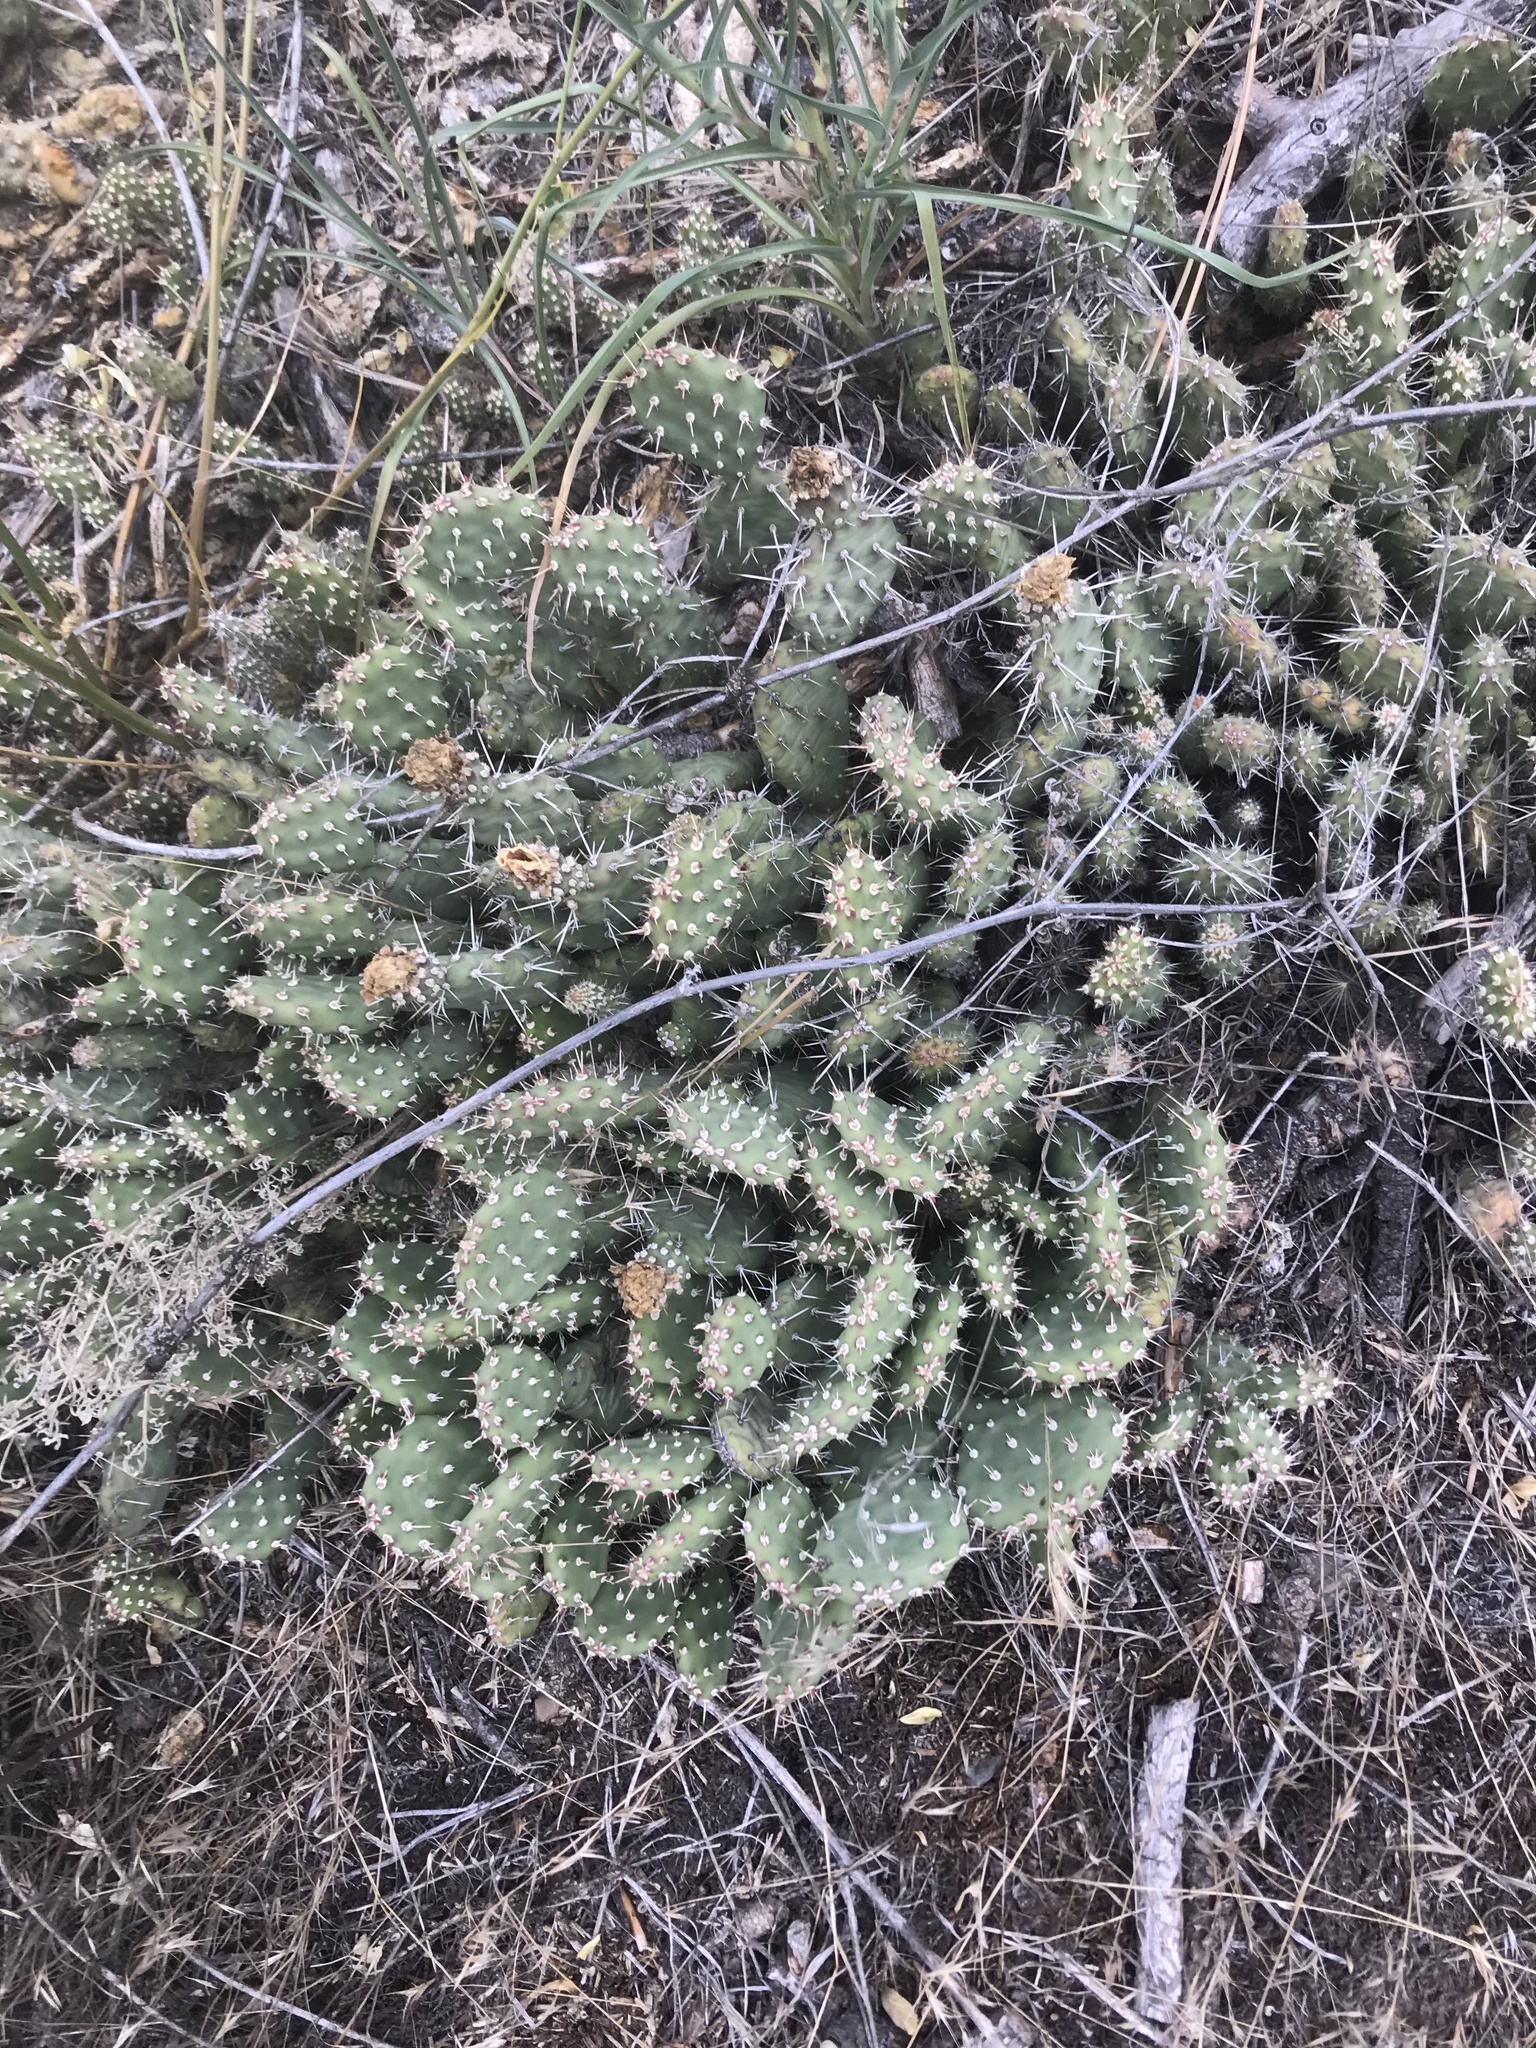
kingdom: Plantae
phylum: Tracheophyta
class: Magnoliopsida
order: Caryophyllales
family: Cactaceae
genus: Opuntia
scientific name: Opuntia columbiana
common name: Columbia prickly-pear
